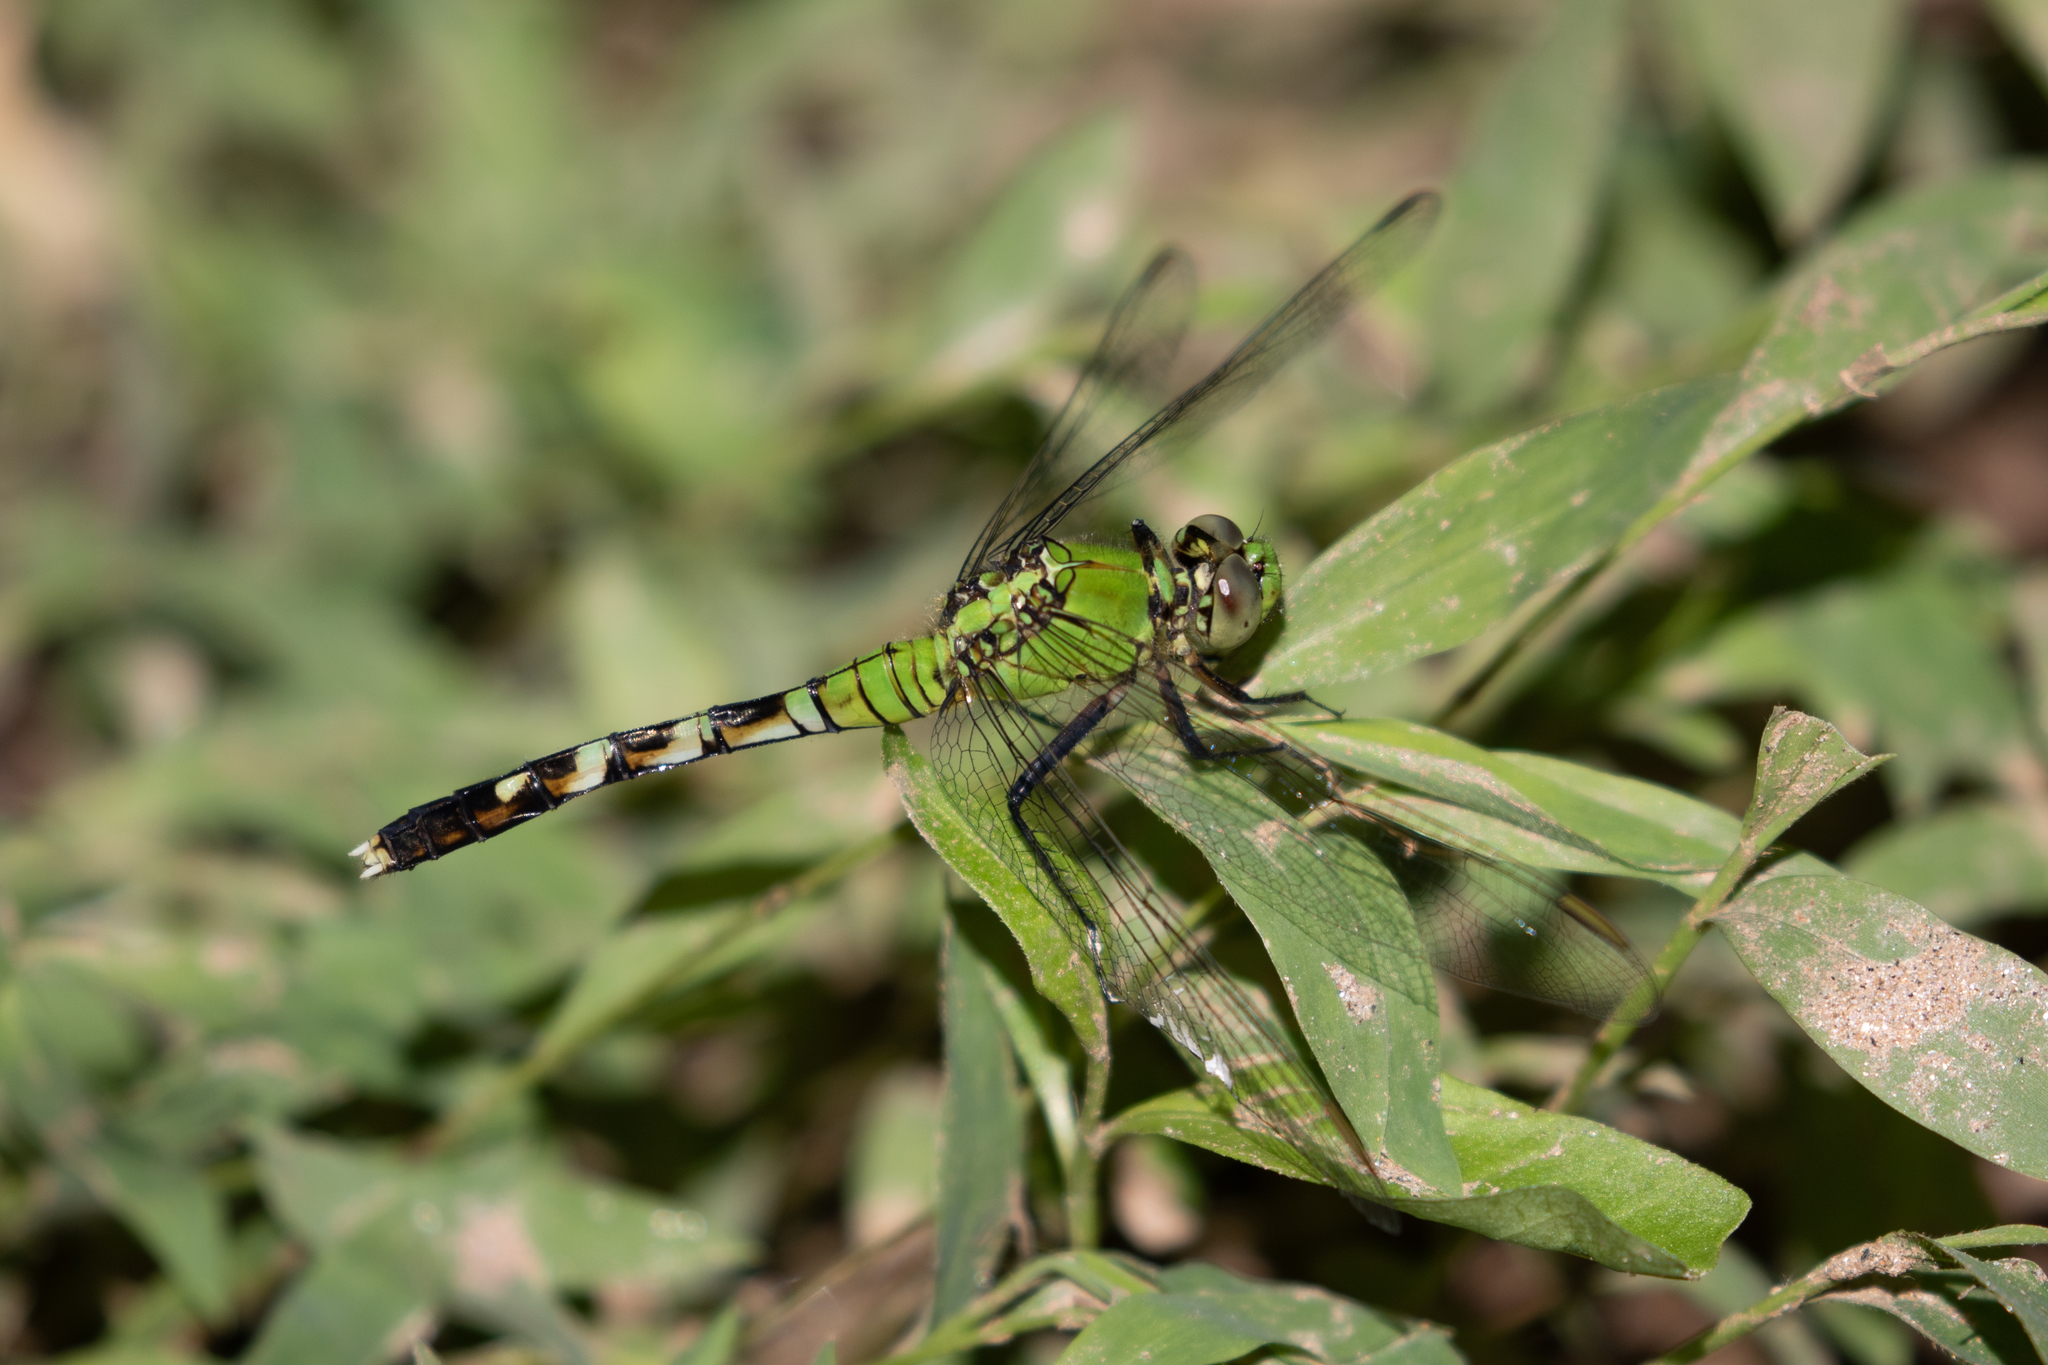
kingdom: Animalia
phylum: Arthropoda
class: Insecta
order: Odonata
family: Libellulidae
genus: Erythemis
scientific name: Erythemis simplicicollis
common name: Eastern pondhawk
